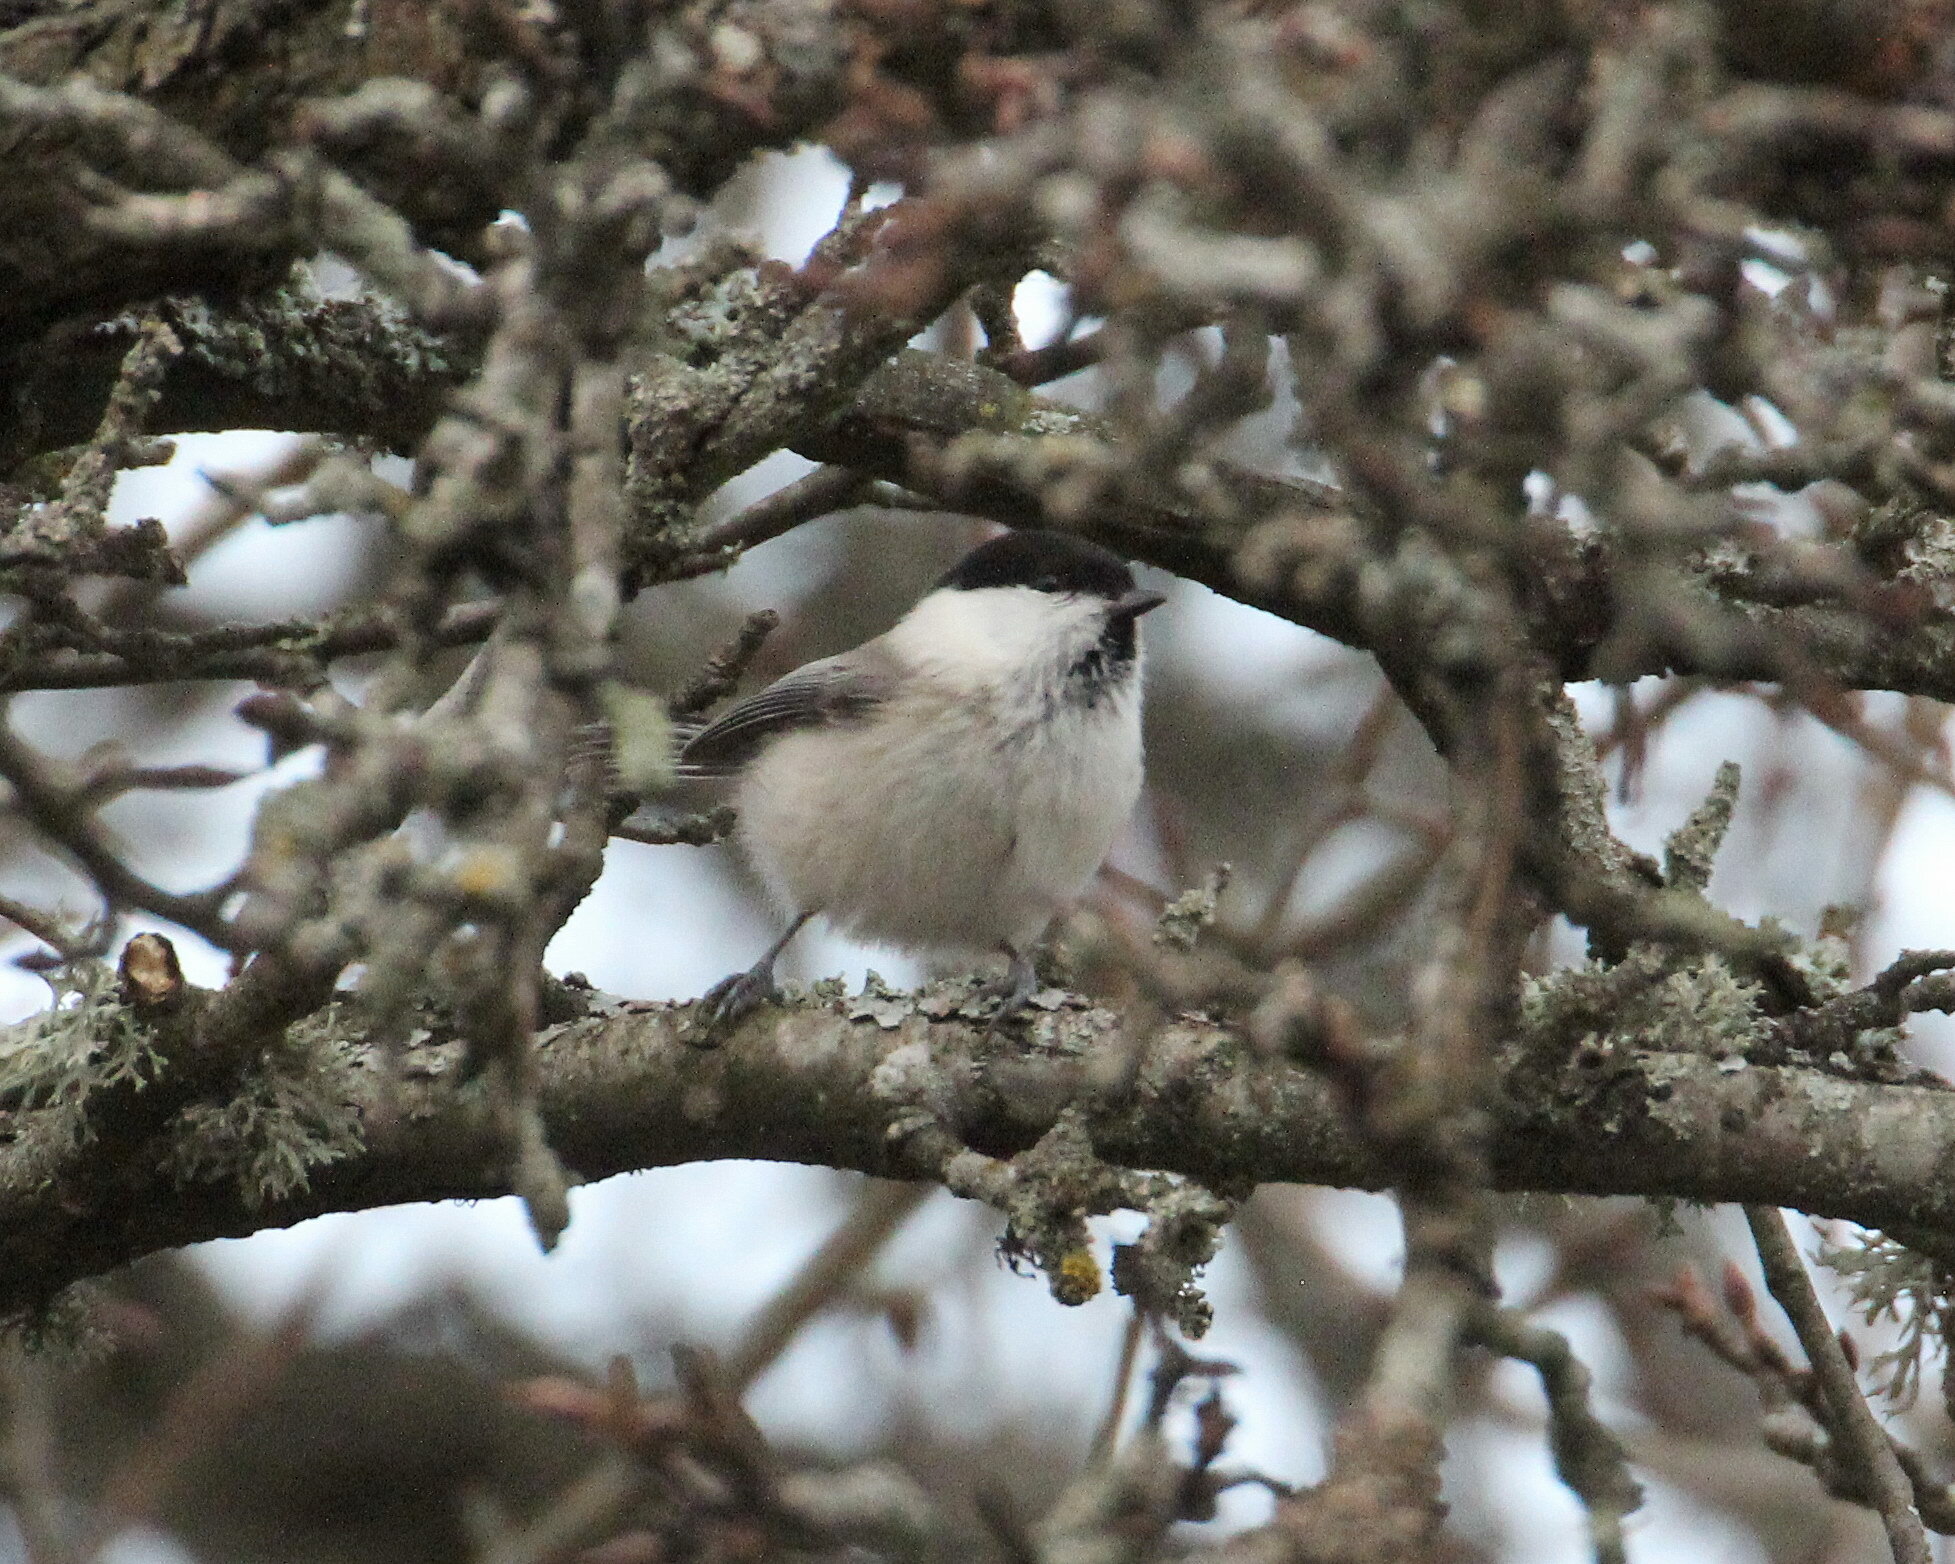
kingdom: Animalia
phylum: Chordata
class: Aves
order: Passeriformes
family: Paridae
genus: Poecile
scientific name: Poecile montanus
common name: Willow tit
